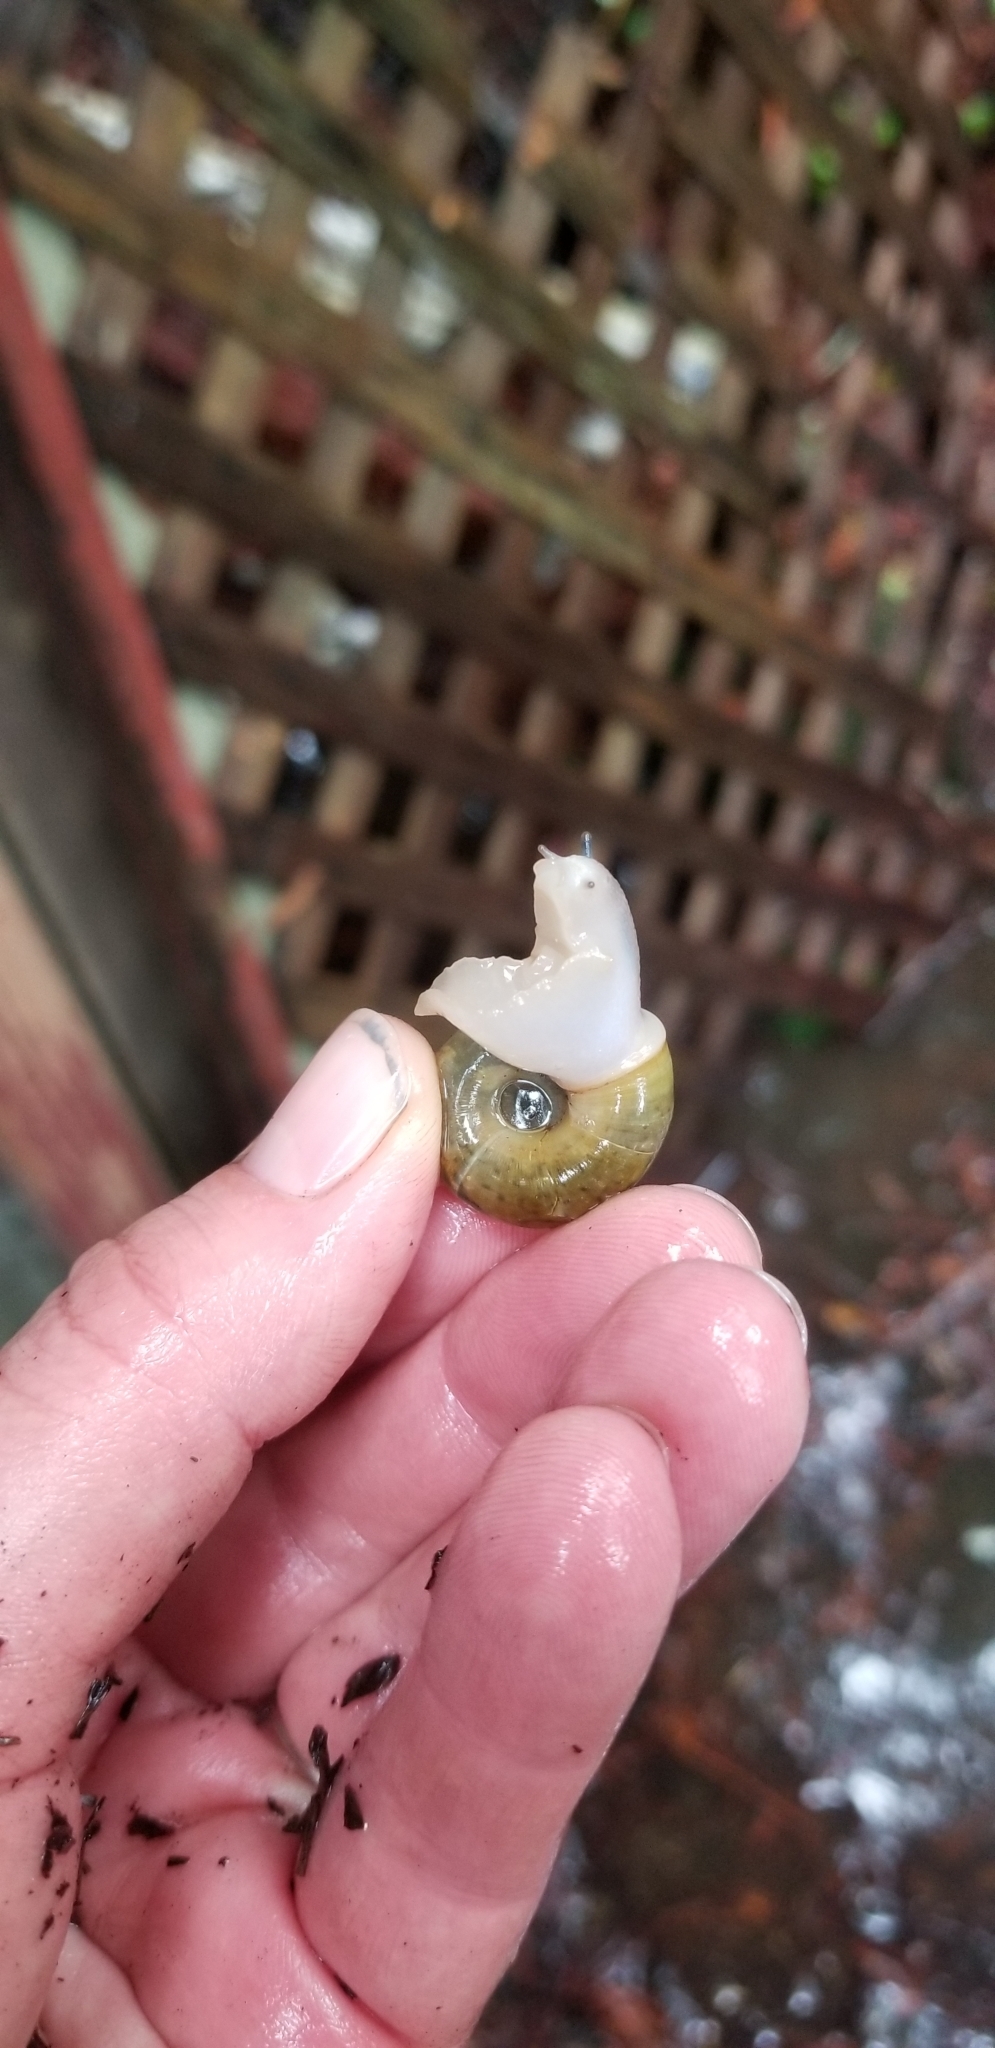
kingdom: Animalia
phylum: Mollusca
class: Gastropoda
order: Stylommatophora
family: Haplotrematidae
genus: Haplotrema
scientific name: Haplotrema minimum
